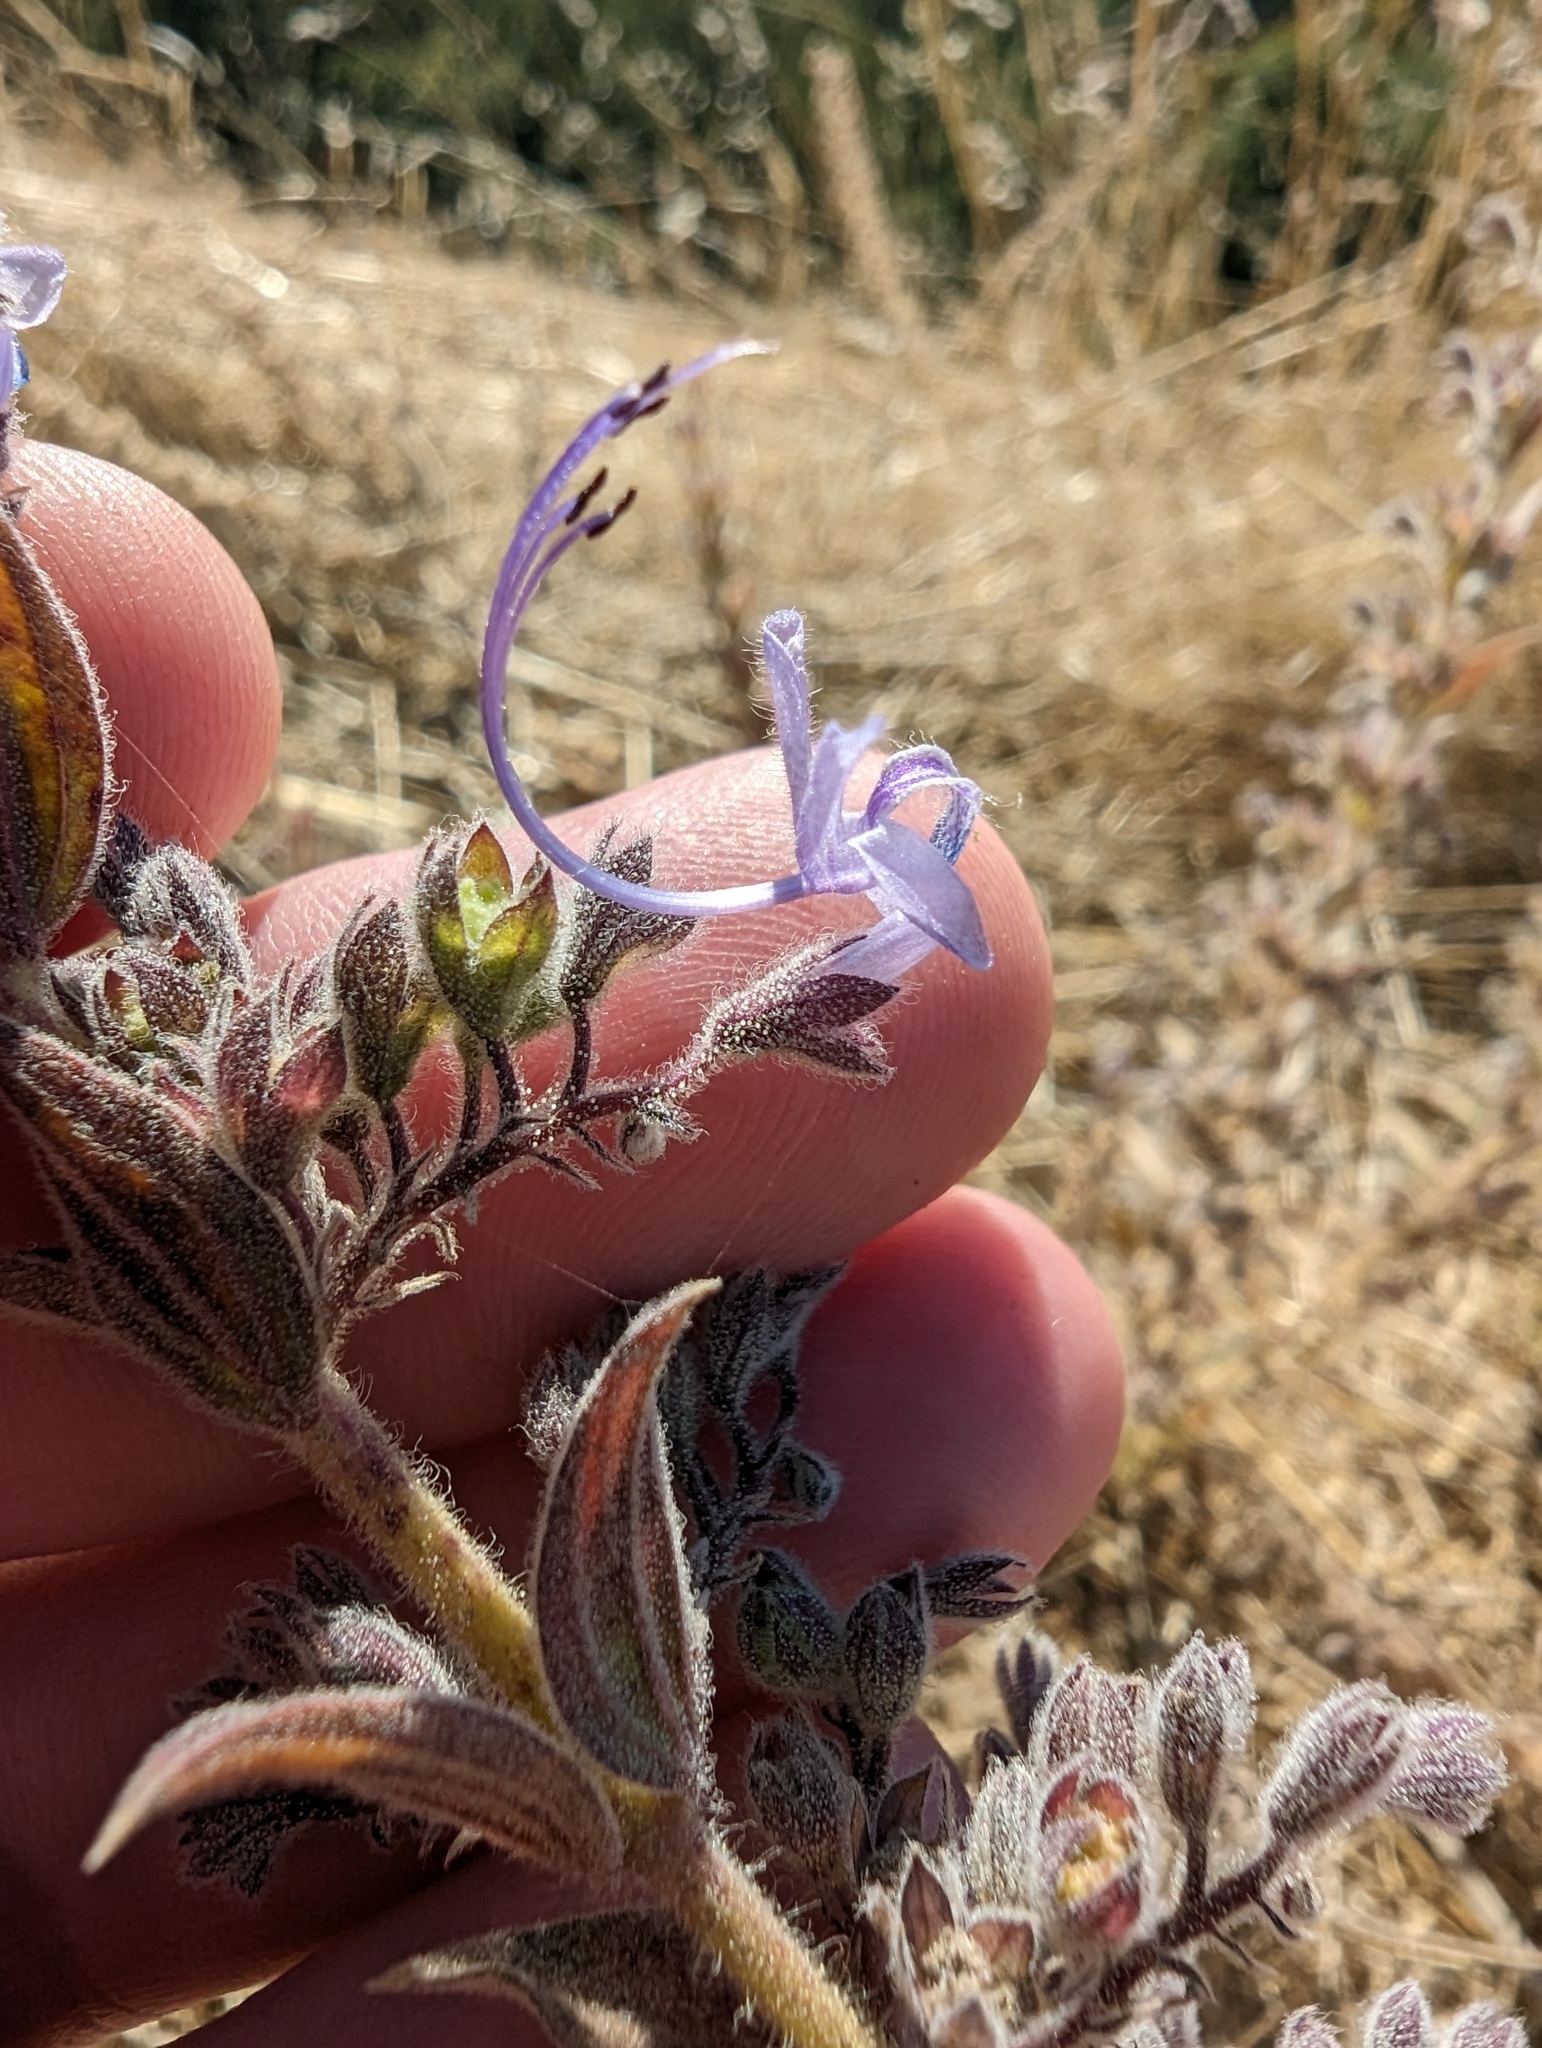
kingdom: Plantae
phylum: Tracheophyta
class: Magnoliopsida
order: Lamiales
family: Lamiaceae
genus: Trichostema
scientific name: Trichostema lanceolatum
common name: Vinegar-weed
